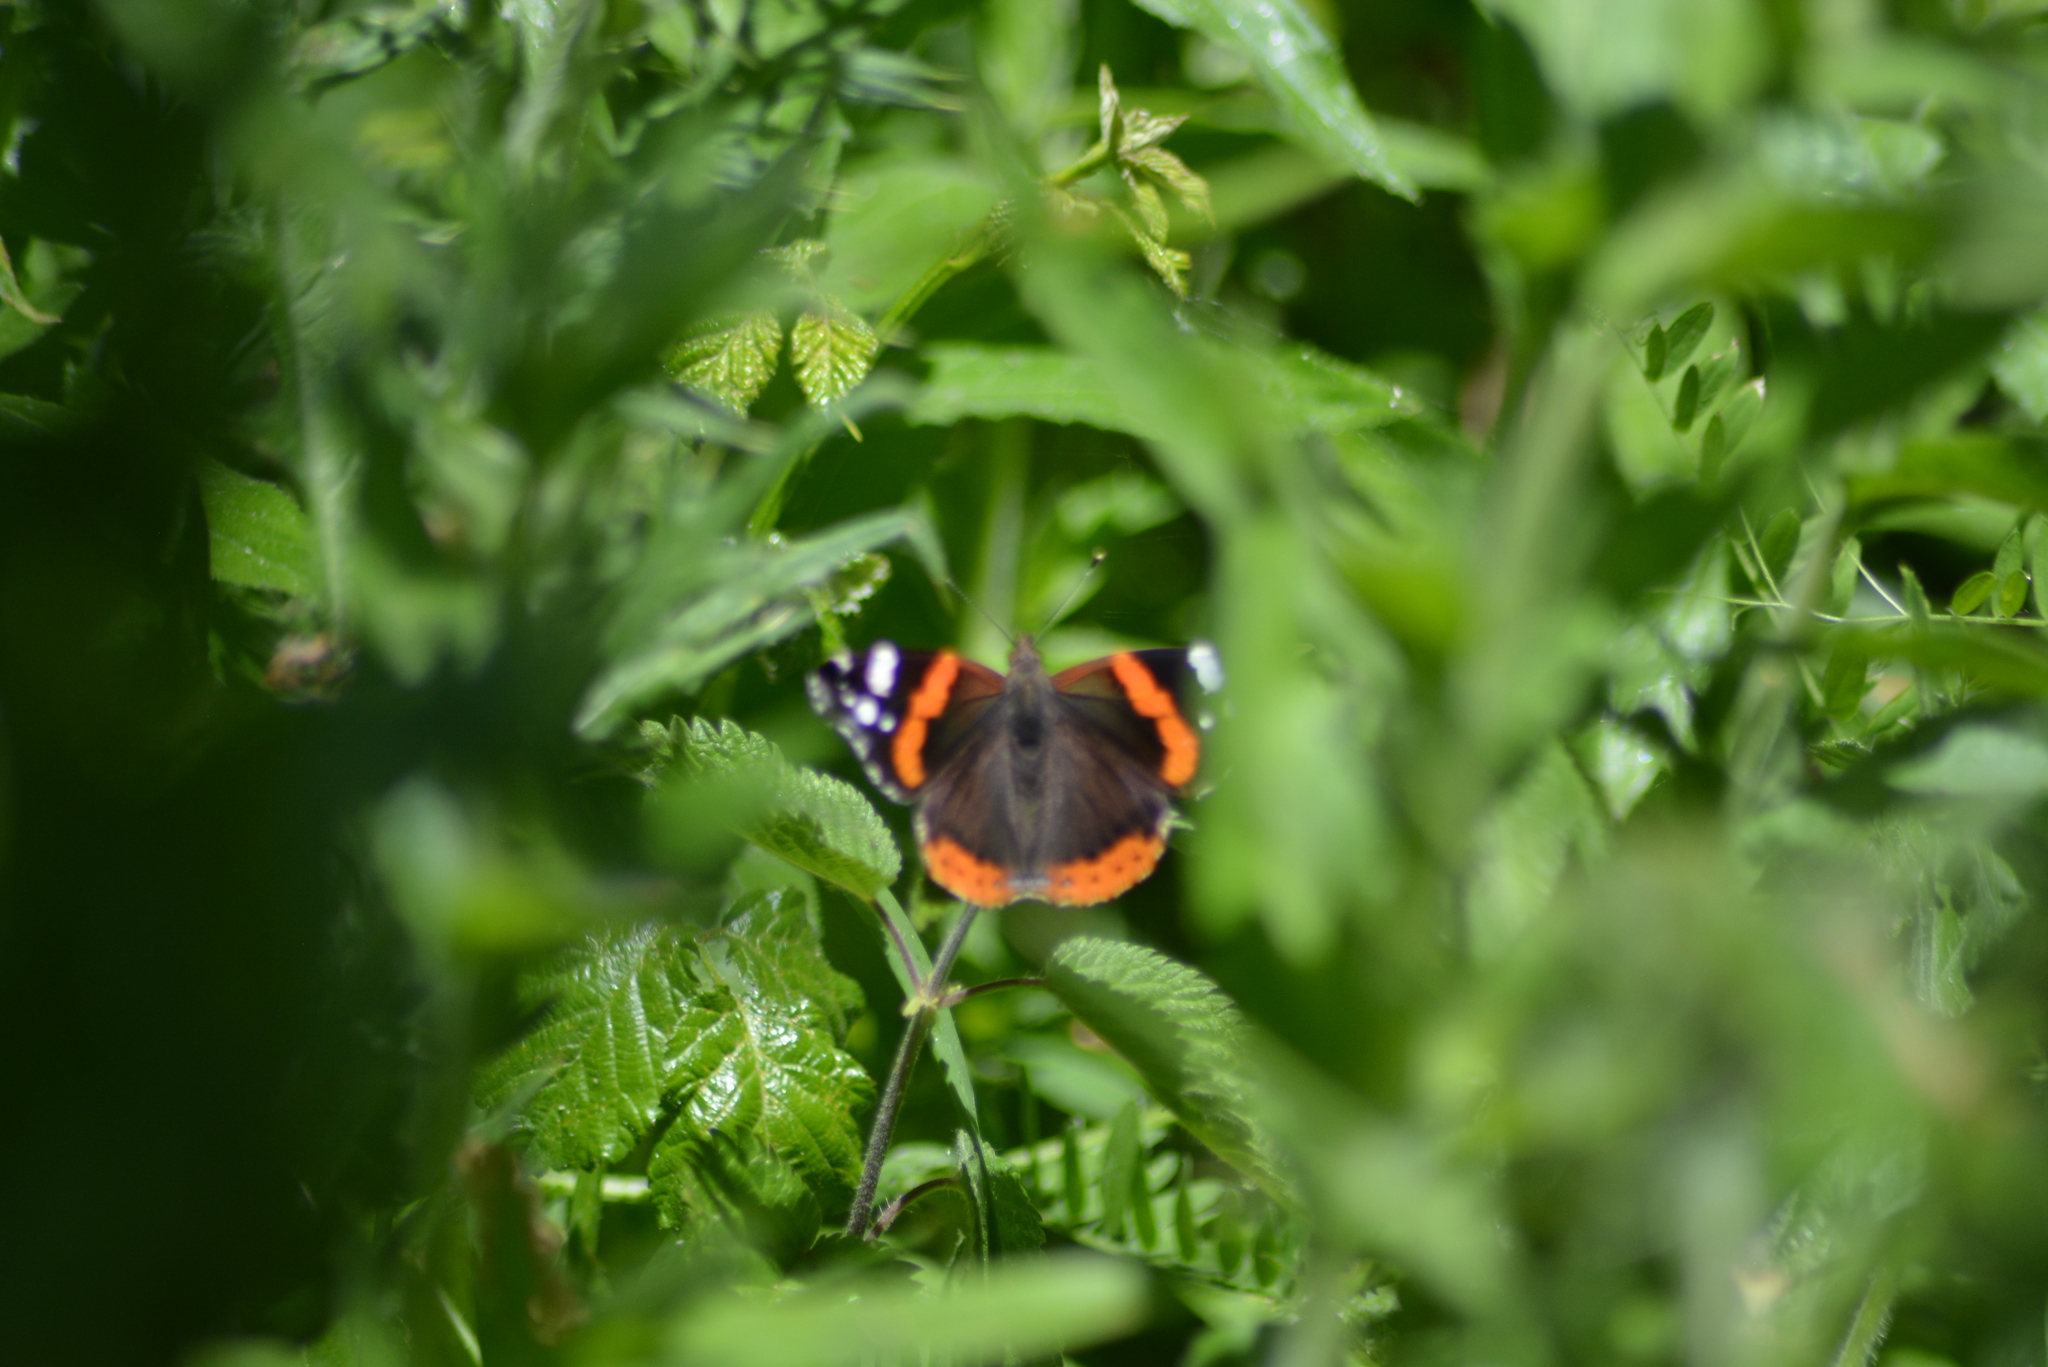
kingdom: Animalia
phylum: Arthropoda
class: Insecta
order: Lepidoptera
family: Nymphalidae
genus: Vanessa
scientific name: Vanessa atalanta
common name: Red admiral
